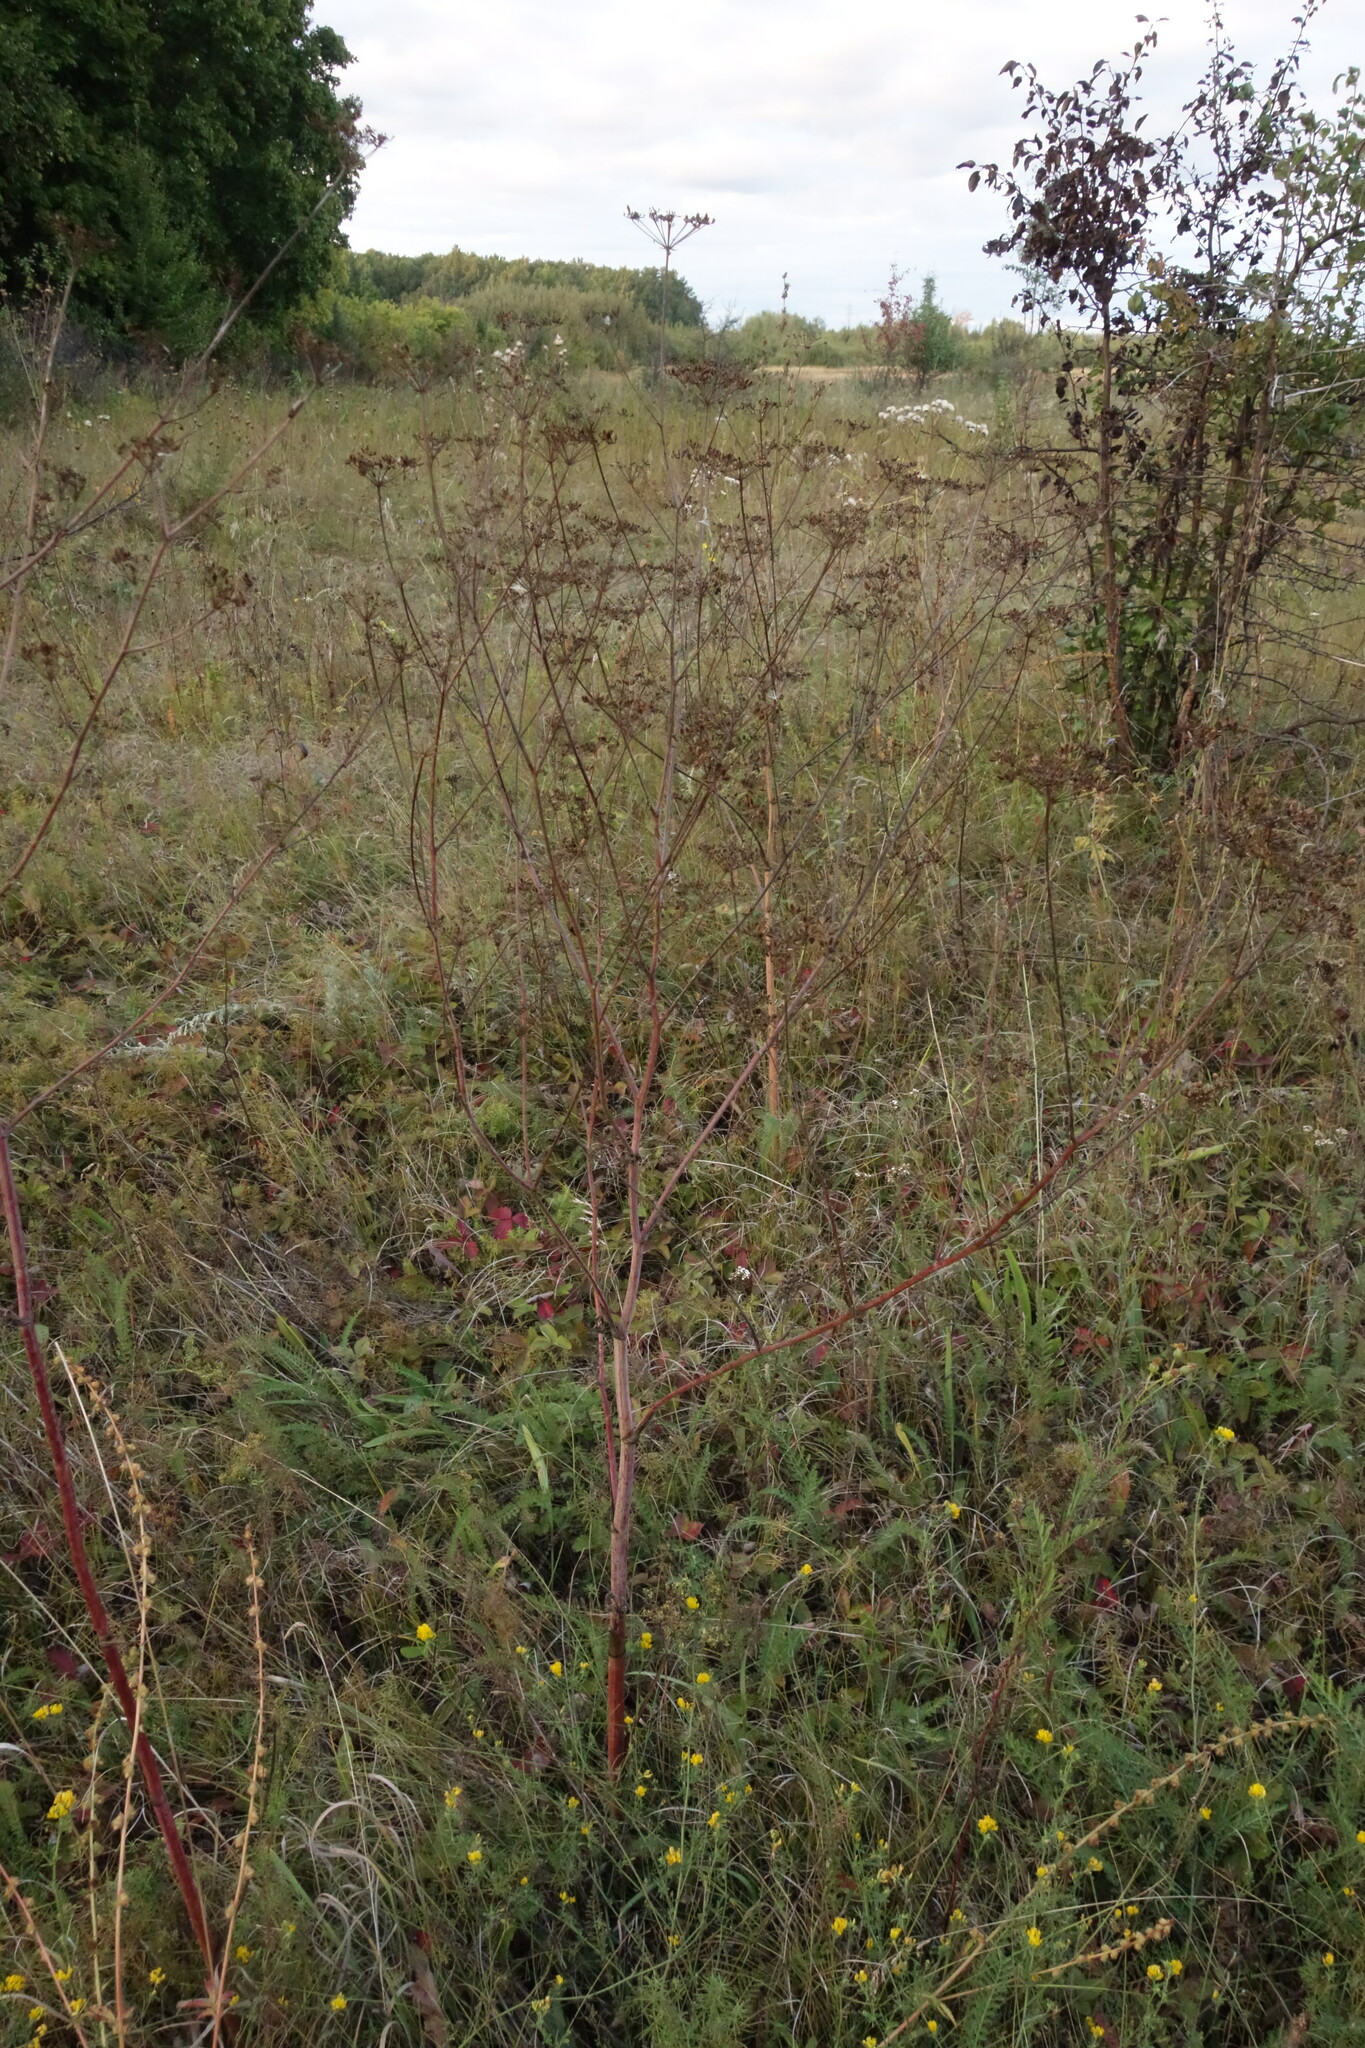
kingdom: Plantae
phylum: Tracheophyta
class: Magnoliopsida
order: Apiales
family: Apiaceae
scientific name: Apiaceae
